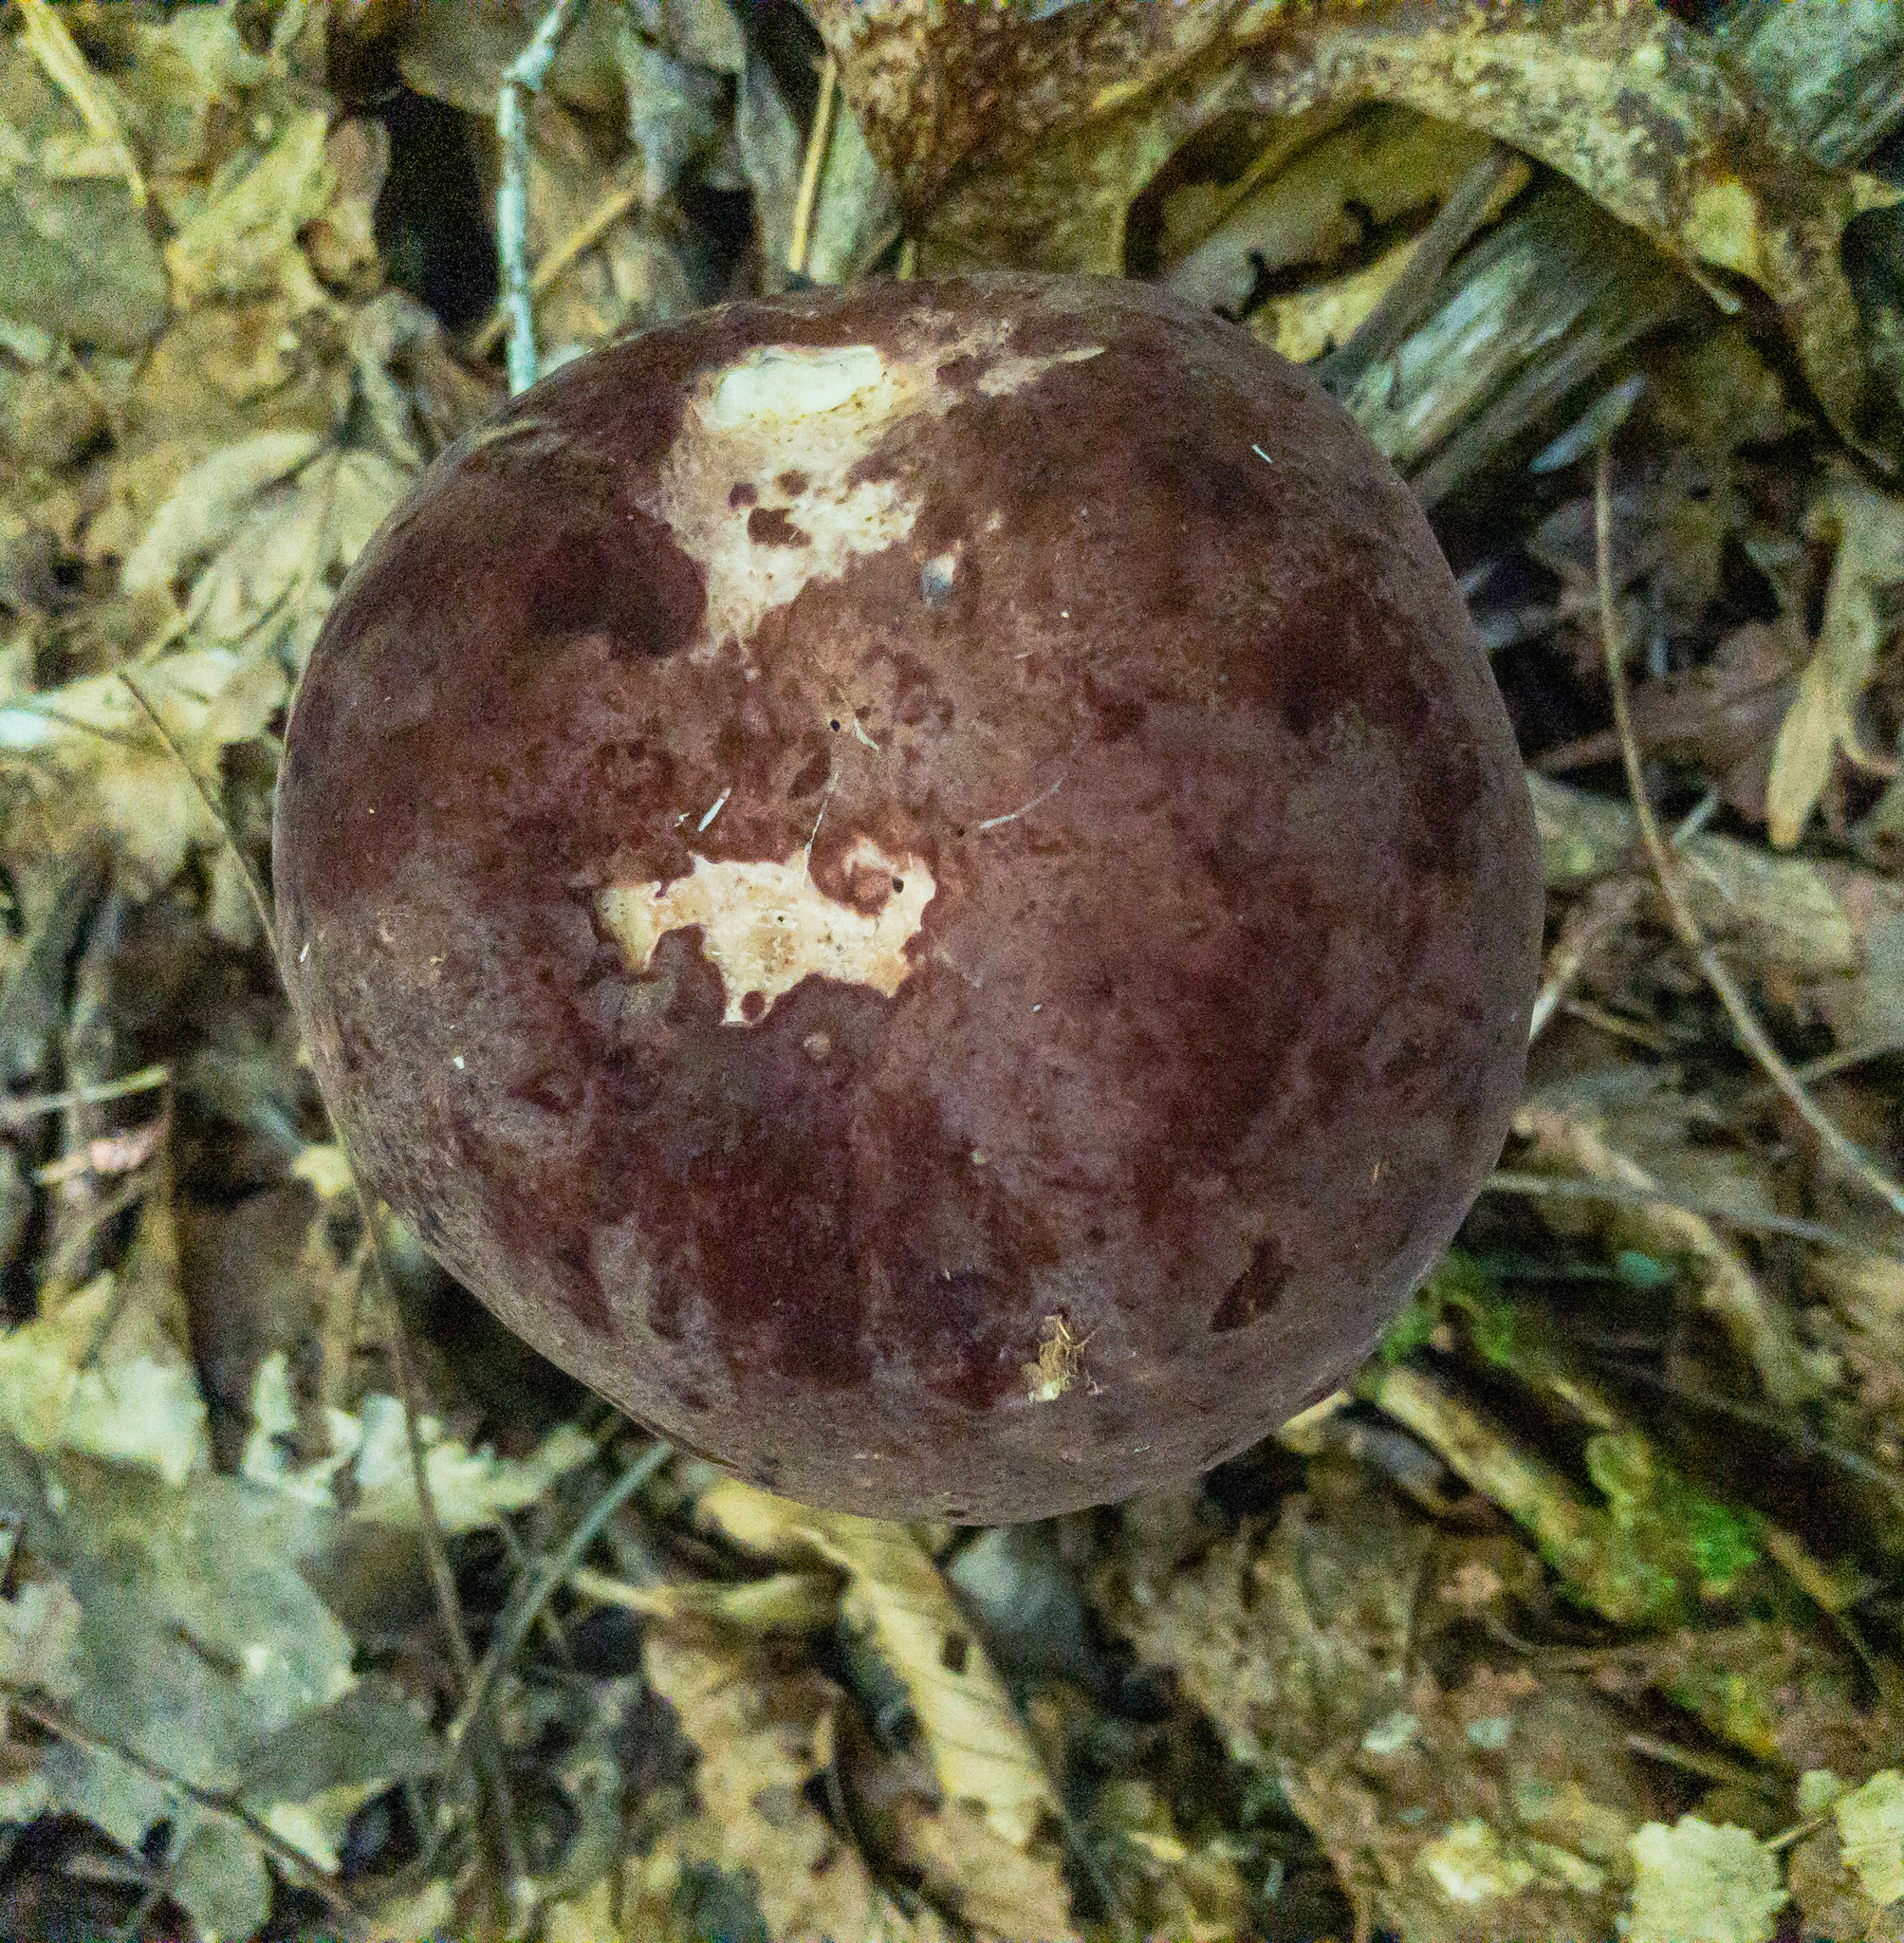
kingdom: Fungi
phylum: Basidiomycota
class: Agaricomycetes
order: Boletales
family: Boletaceae
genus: Tylopilus
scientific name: Tylopilus rubrobrunneus
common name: Reddish brown bitter bolete
